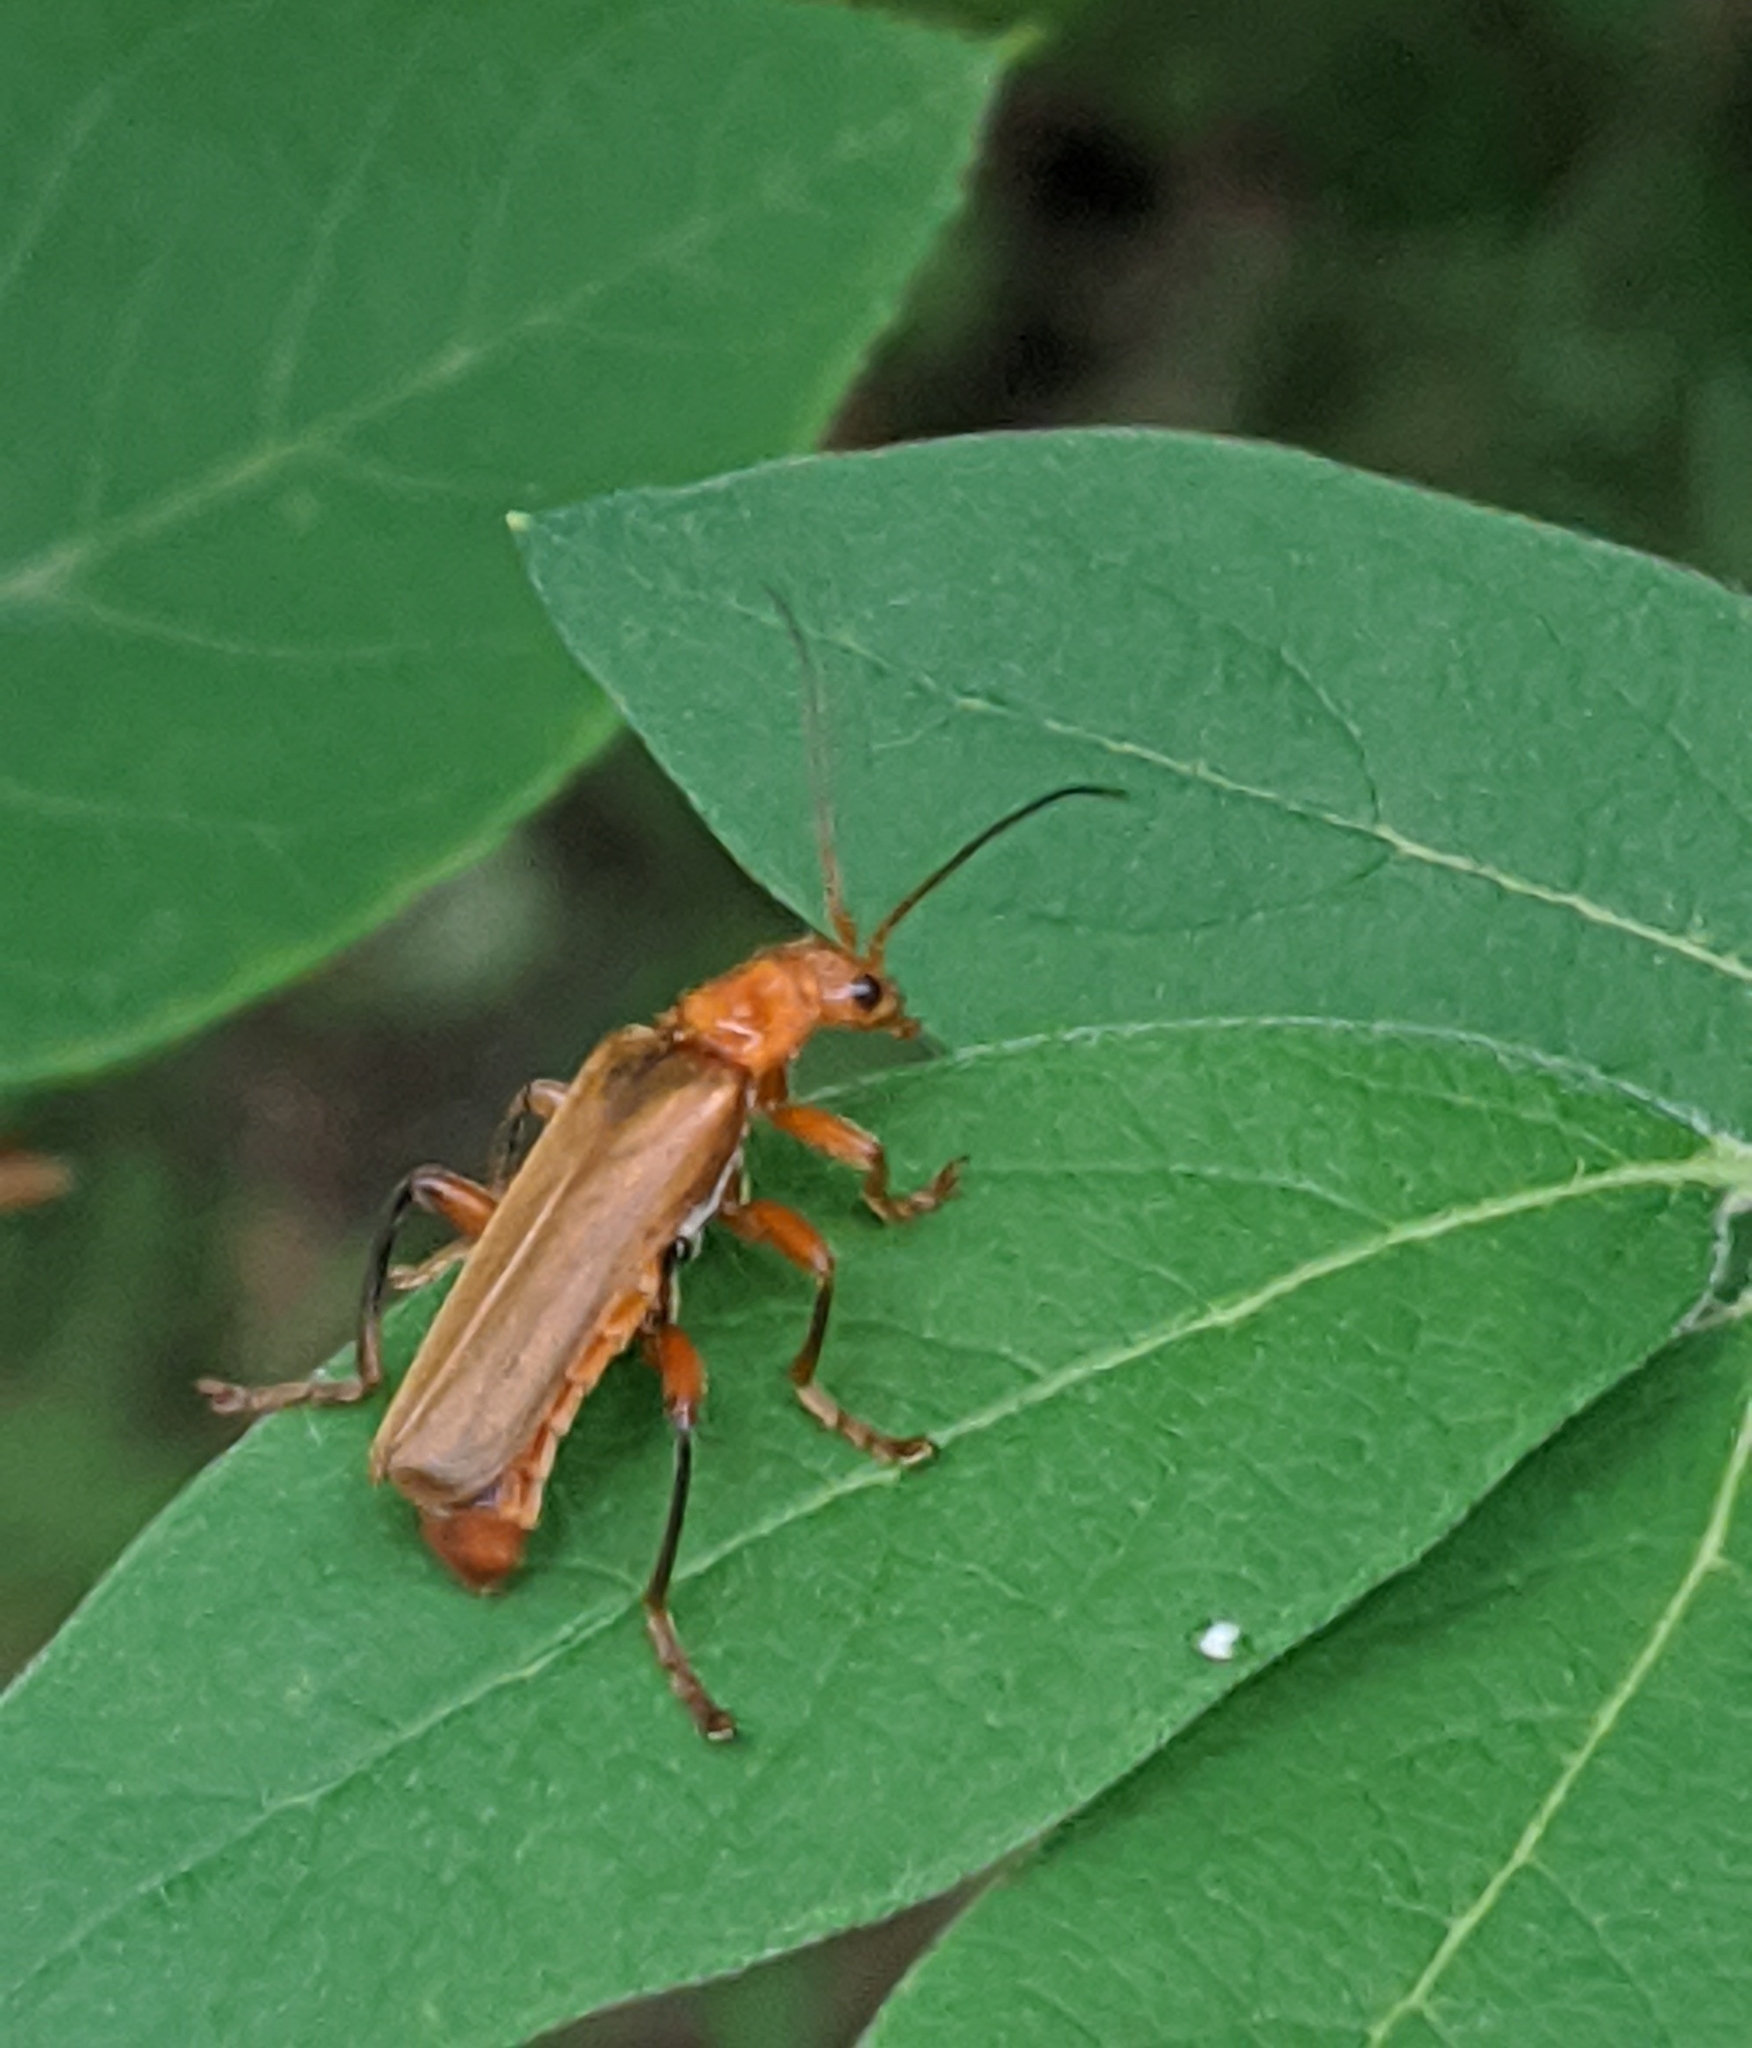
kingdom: Animalia
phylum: Arthropoda
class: Insecta
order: Coleoptera
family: Cantharidae
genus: Cantharis
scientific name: Cantharis livida
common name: Livid soldier beetle
